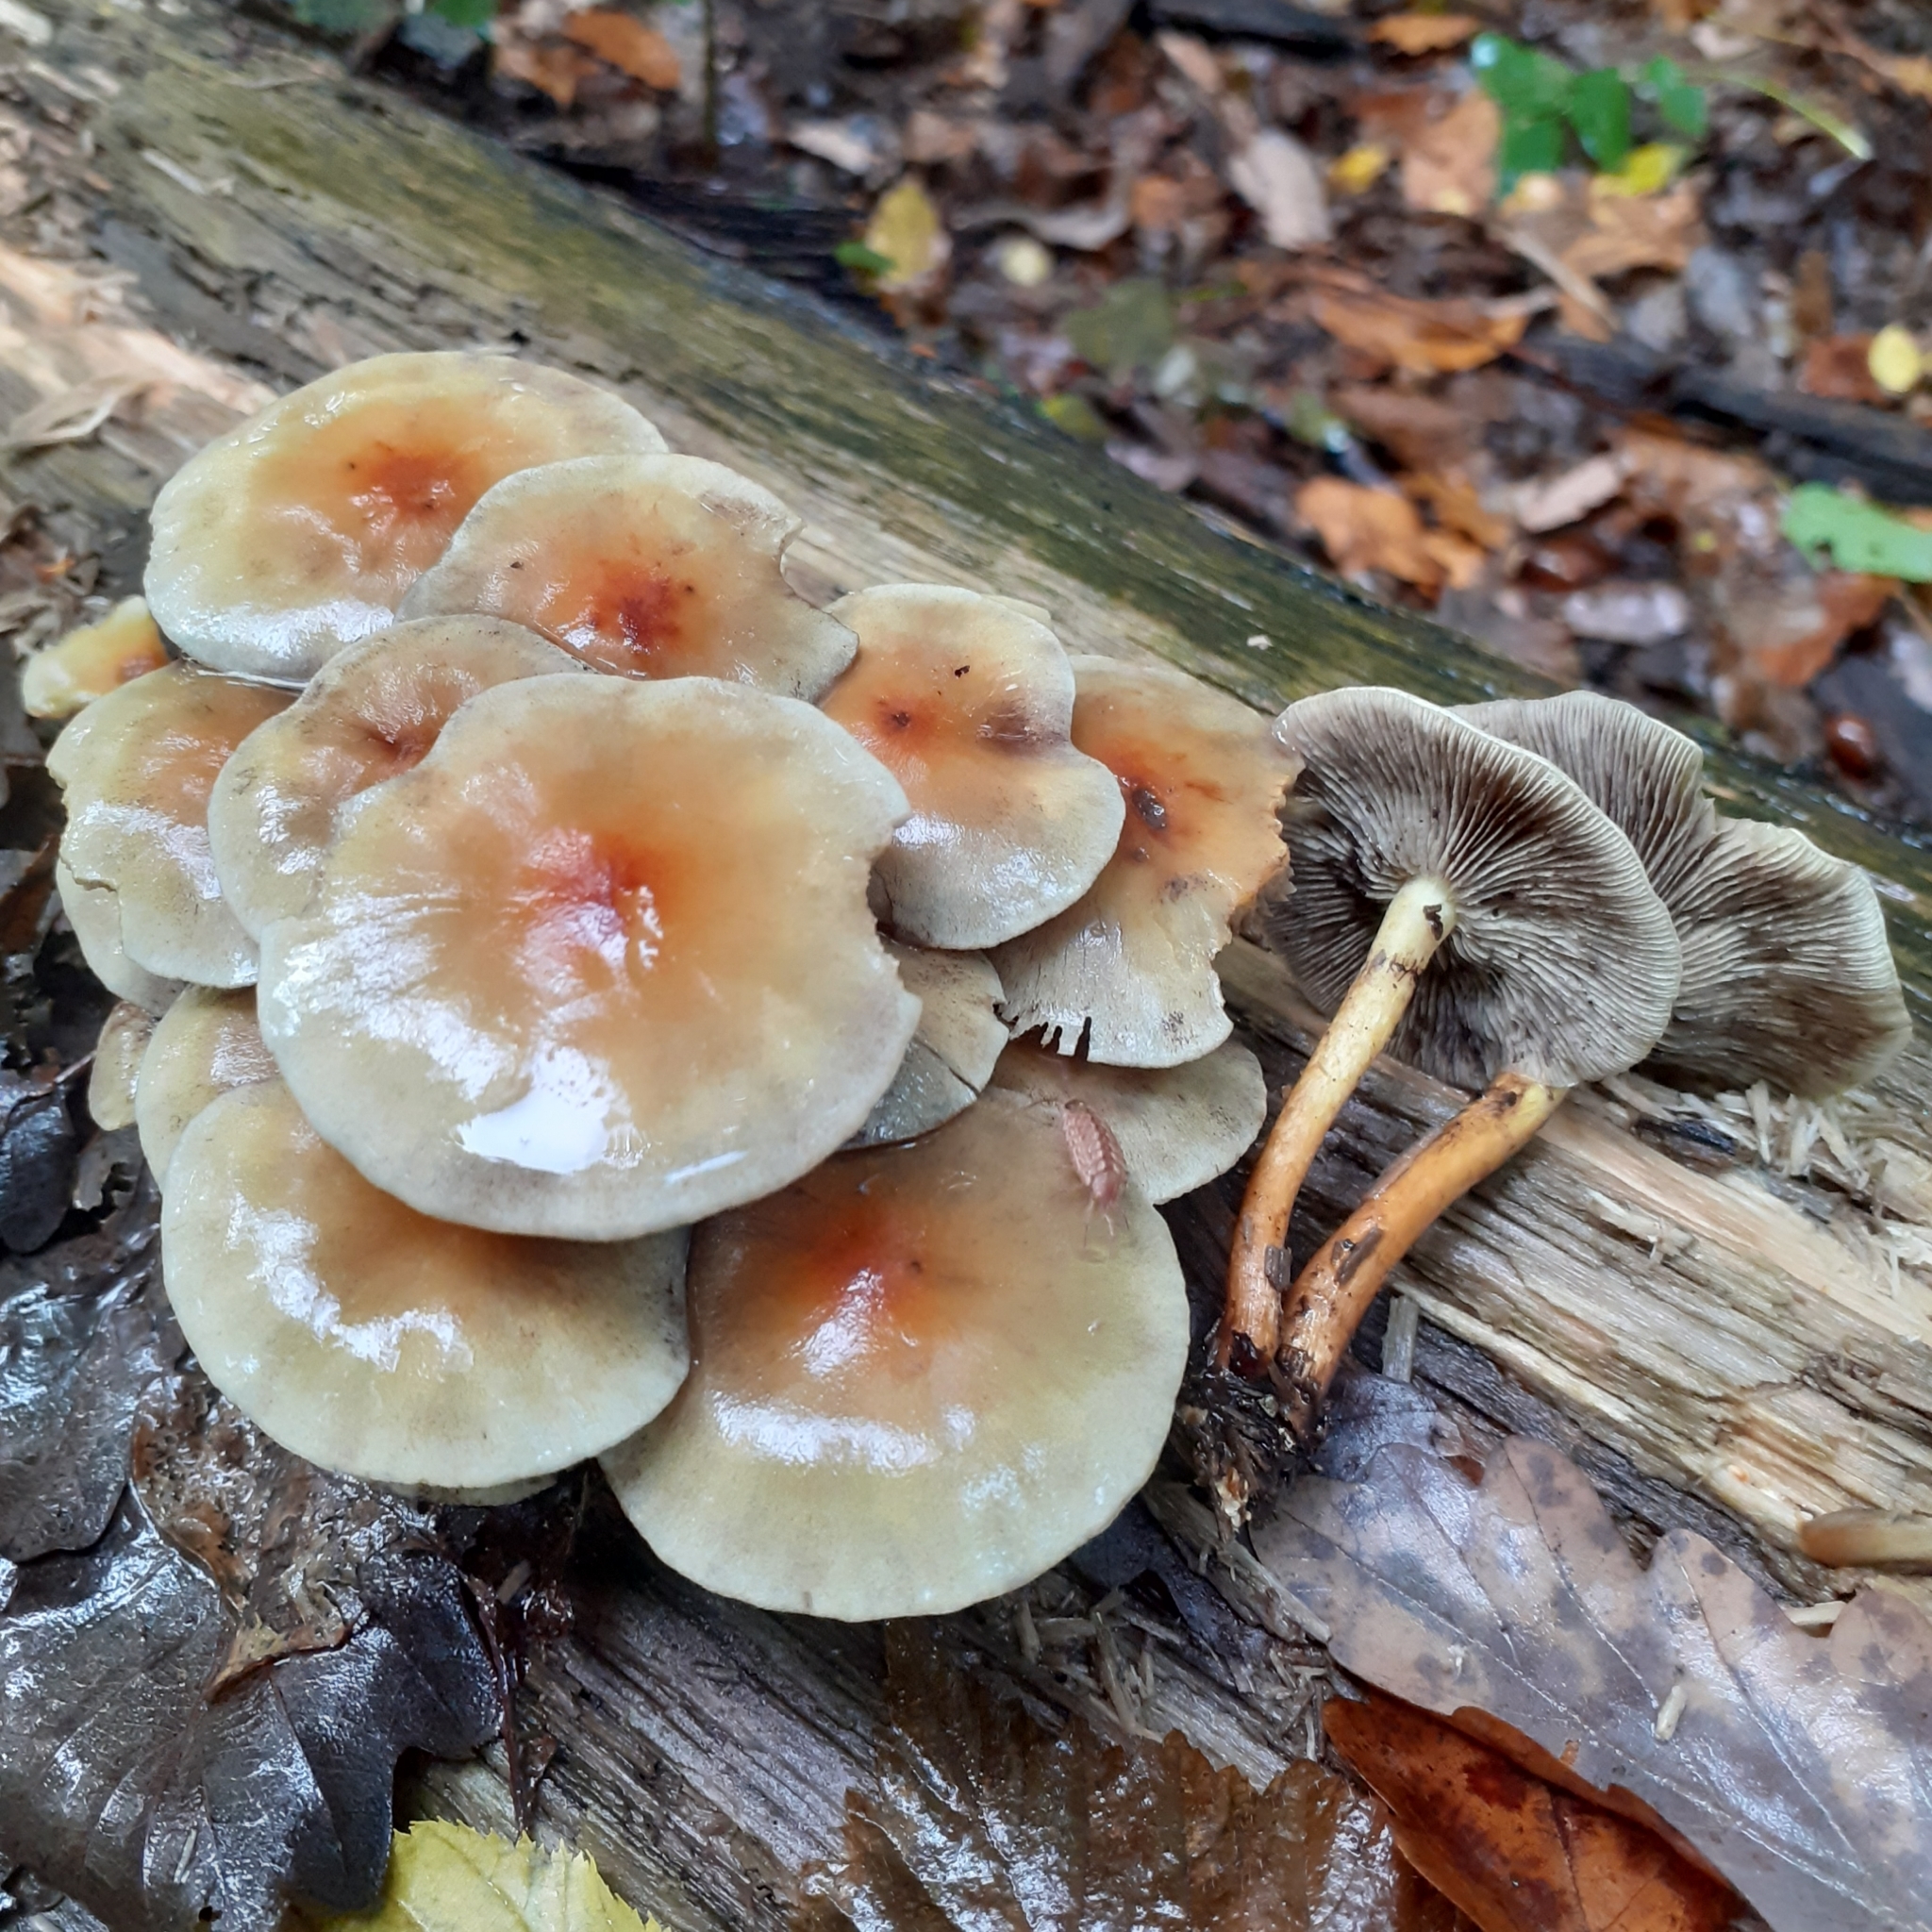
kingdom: Fungi
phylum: Basidiomycota
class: Agaricomycetes
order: Agaricales
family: Strophariaceae
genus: Hypholoma
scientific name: Hypholoma fasciculare
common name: Sulphur tuft
